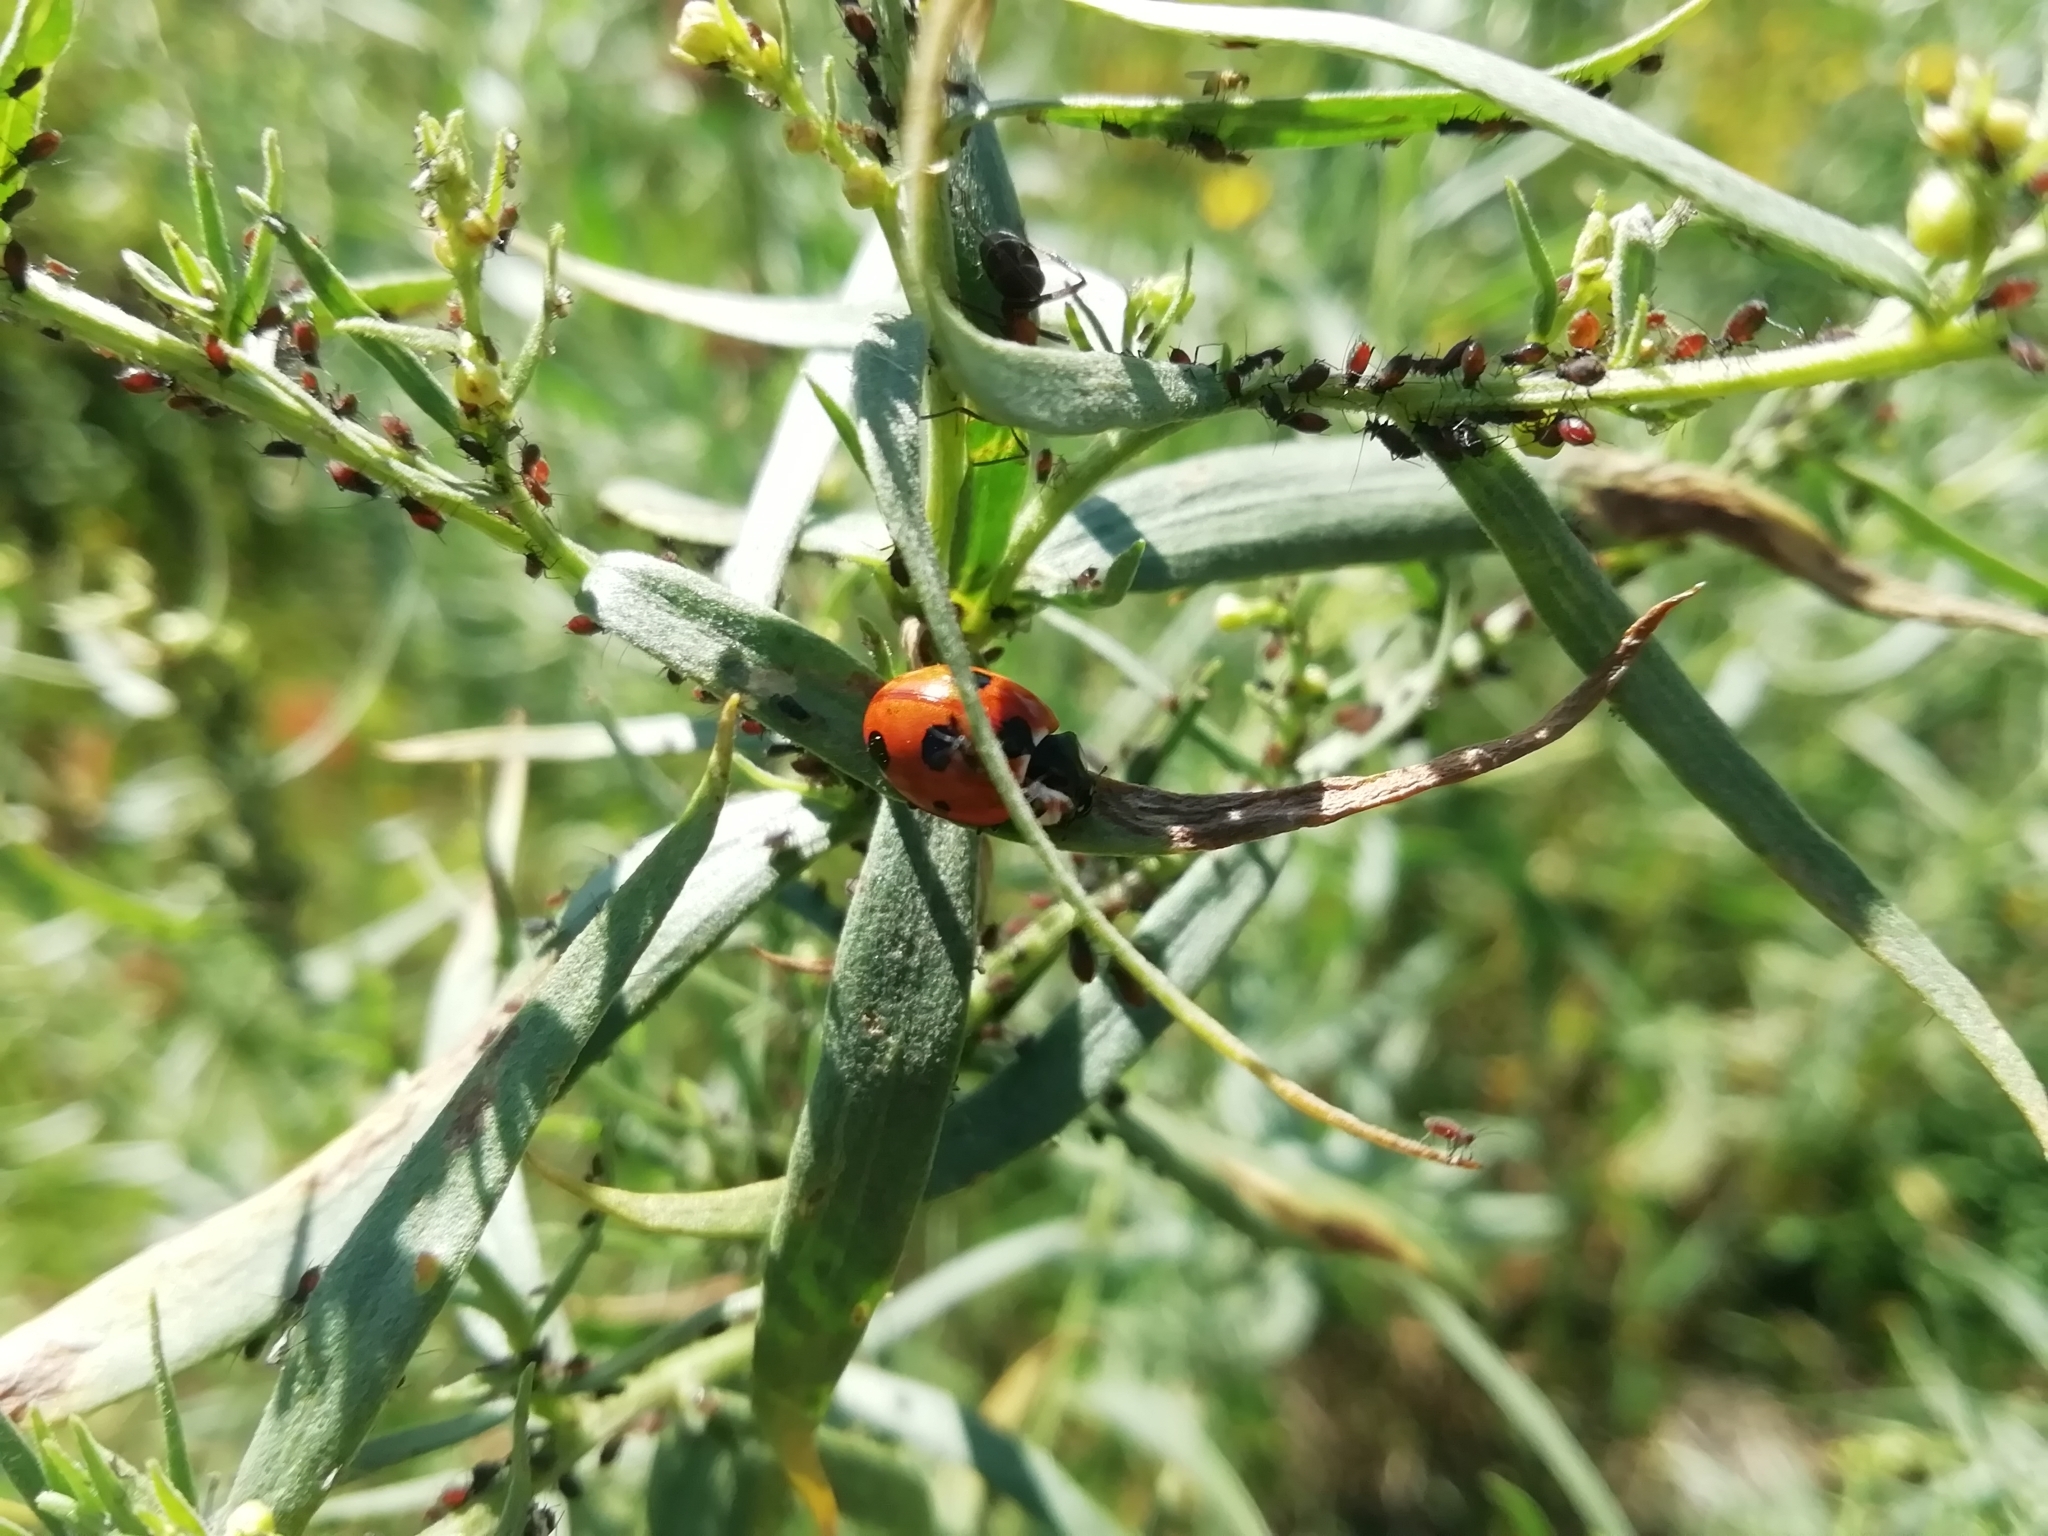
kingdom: Animalia
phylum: Arthropoda
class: Insecta
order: Coleoptera
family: Coccinellidae
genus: Coccinella
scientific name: Coccinella magnifica
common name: Scarce 7-spot ladybird
